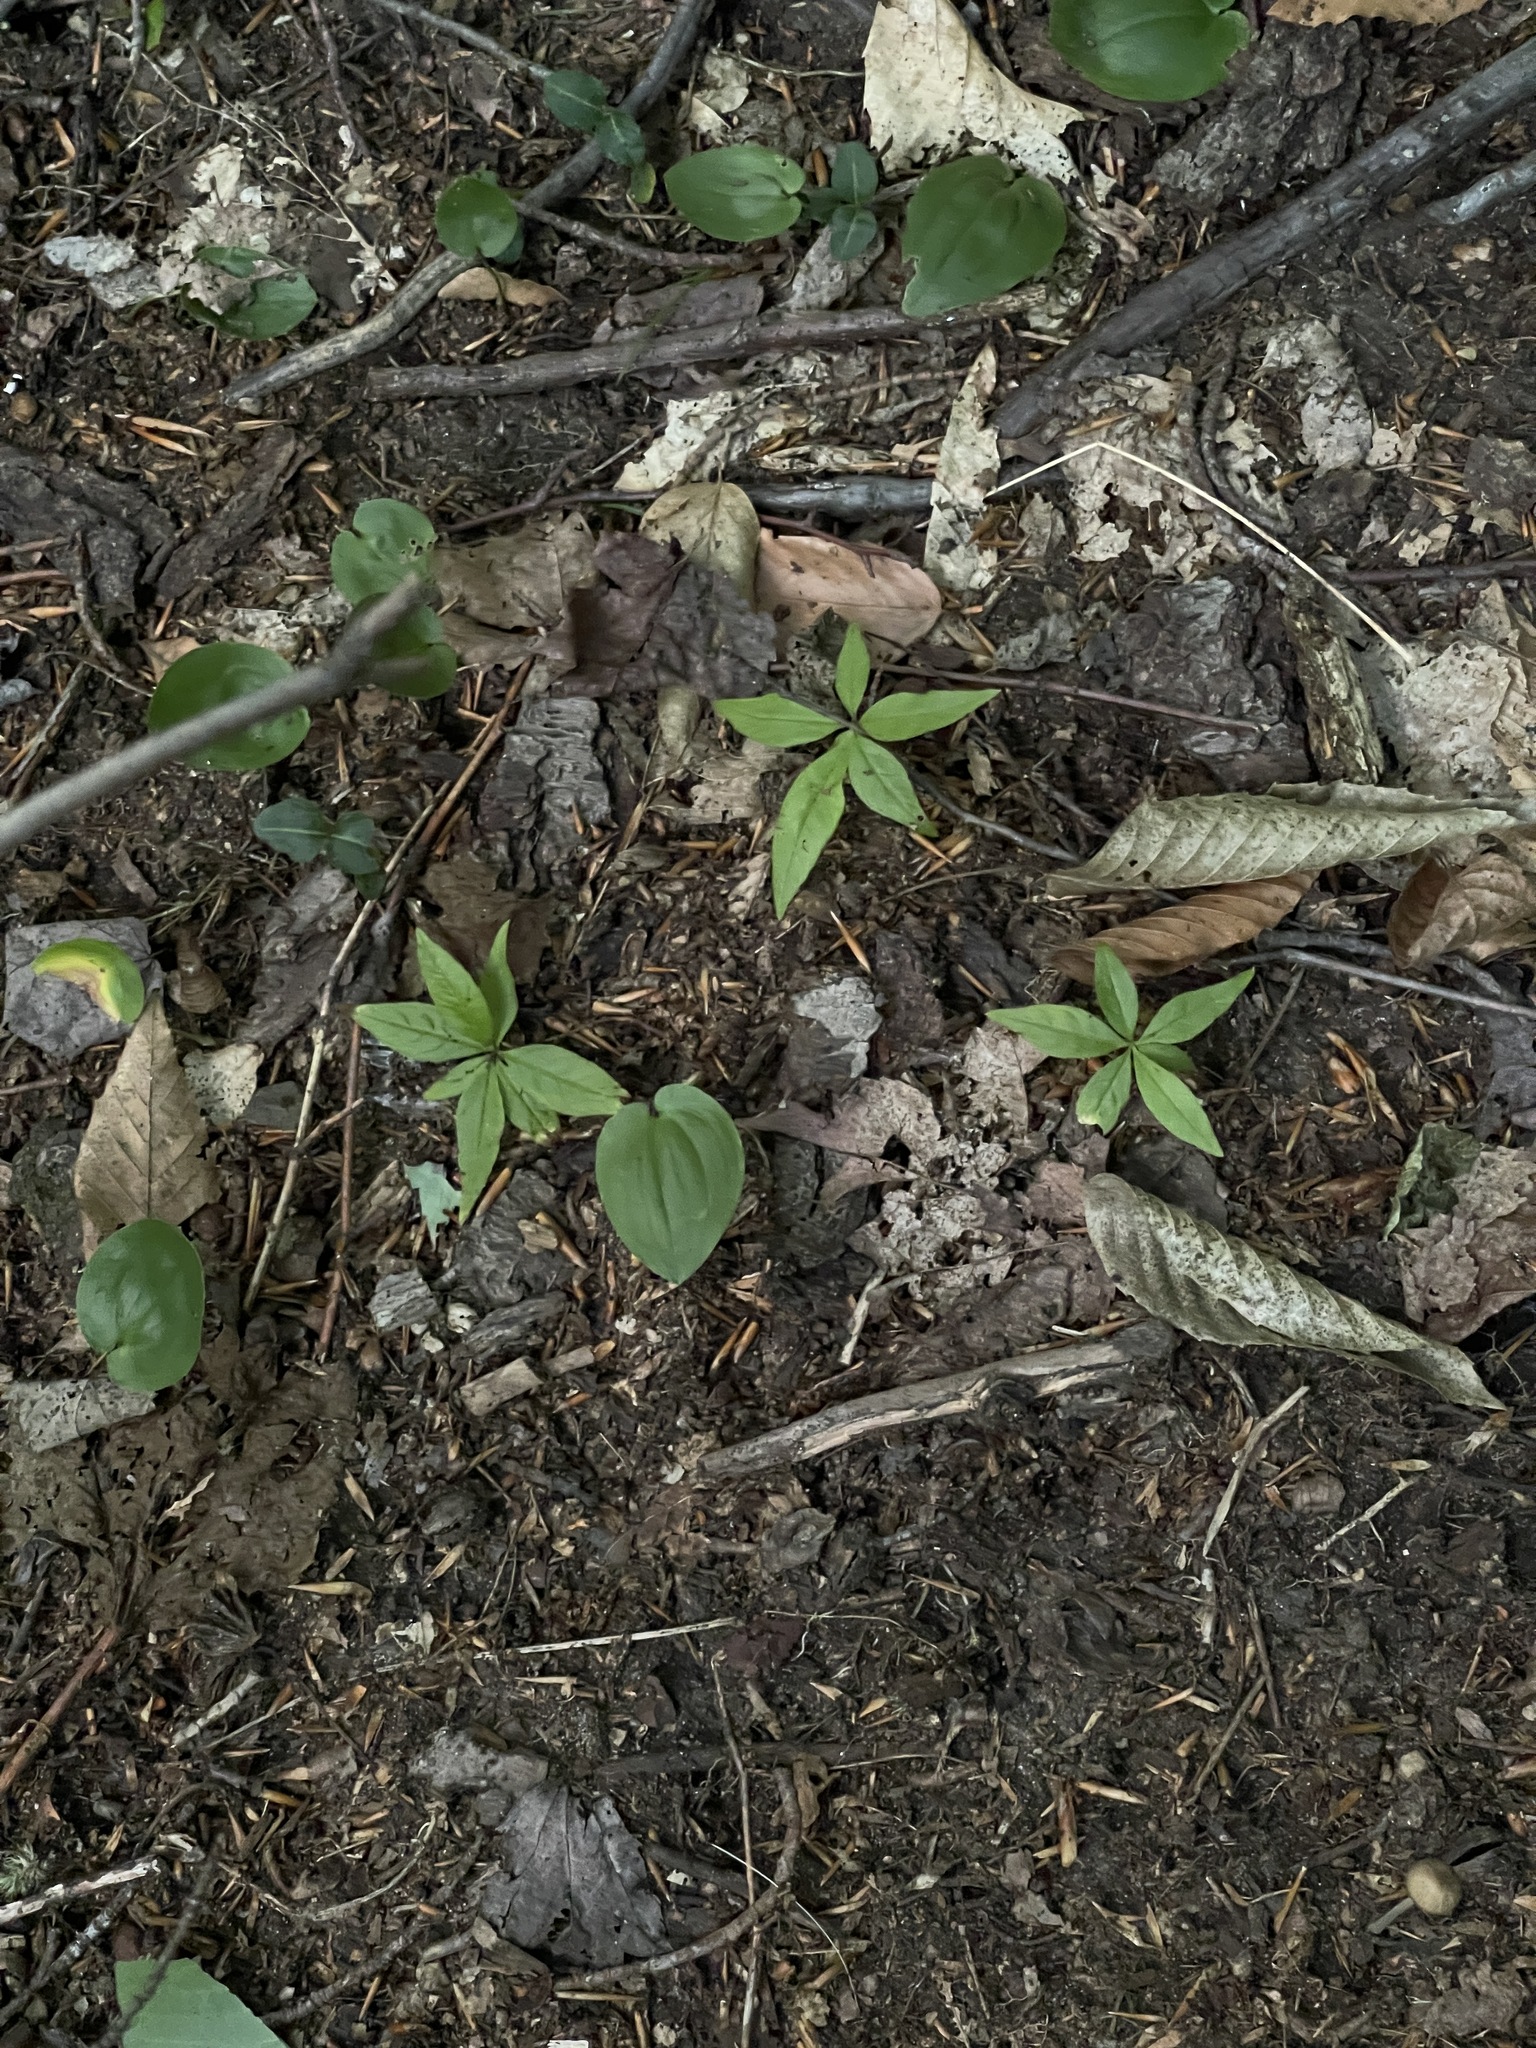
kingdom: Plantae
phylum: Tracheophyta
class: Magnoliopsida
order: Ericales
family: Primulaceae
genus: Lysimachia
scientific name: Lysimachia borealis
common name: American starflower
